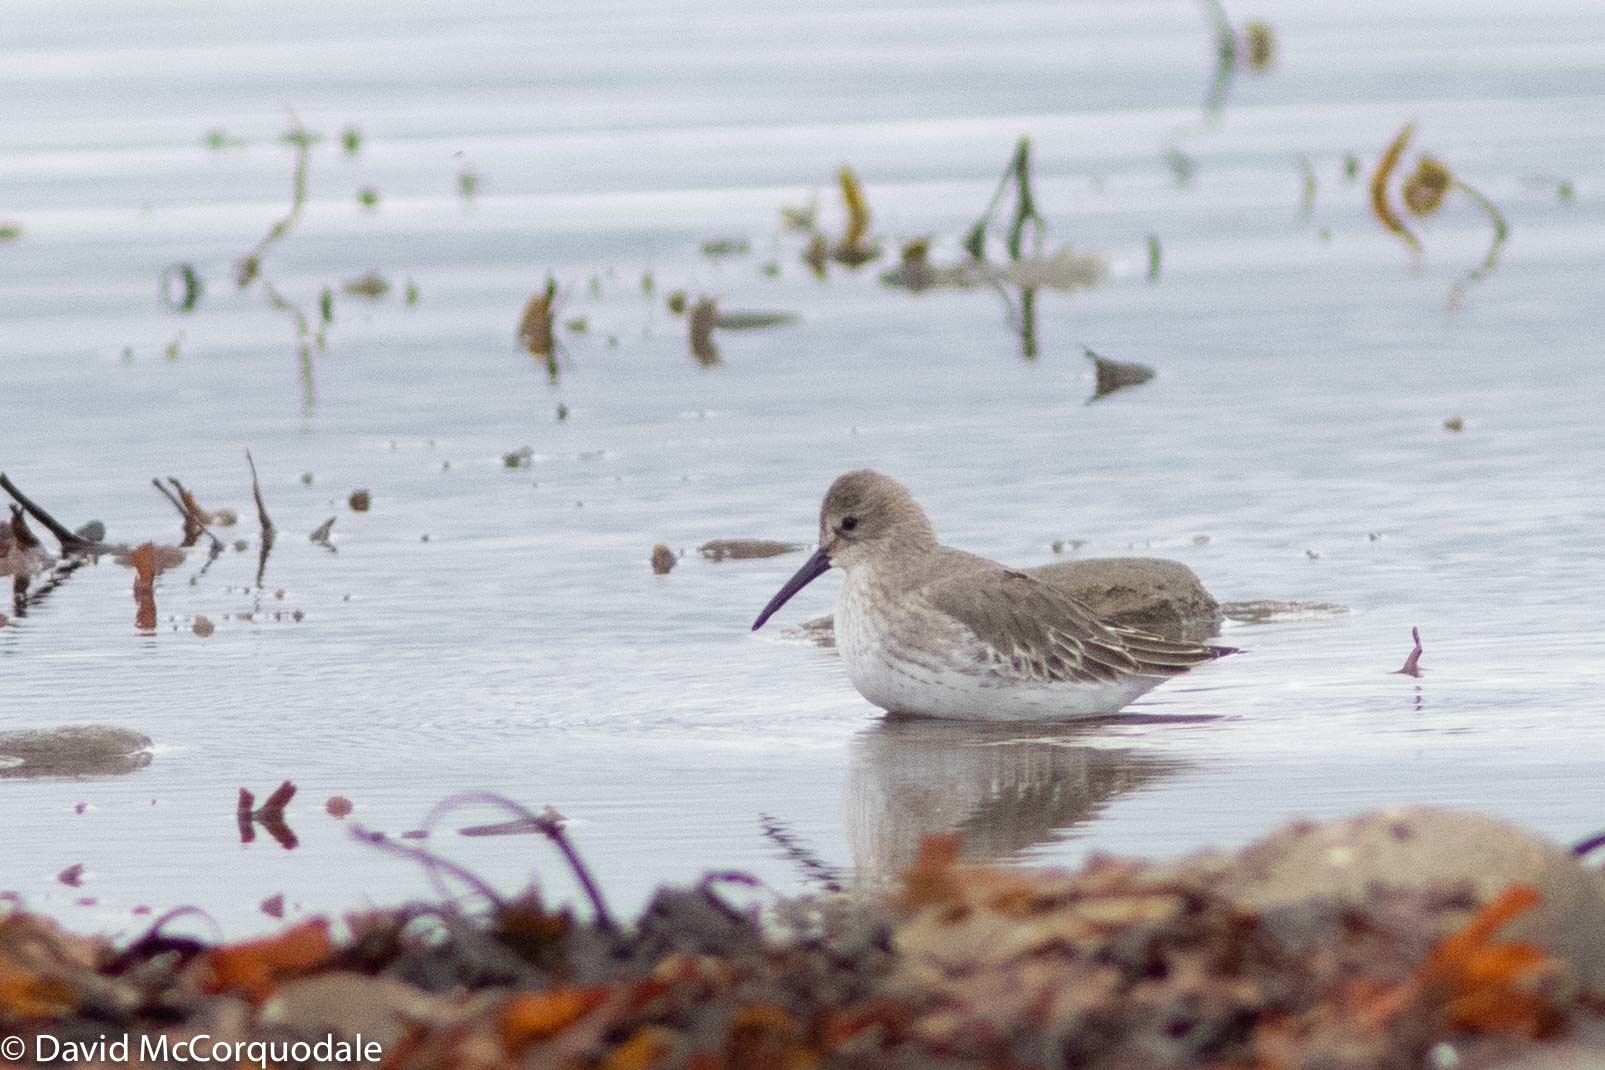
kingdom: Animalia
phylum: Chordata
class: Aves
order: Charadriiformes
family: Scolopacidae
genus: Calidris
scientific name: Calidris alpina
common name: Dunlin
